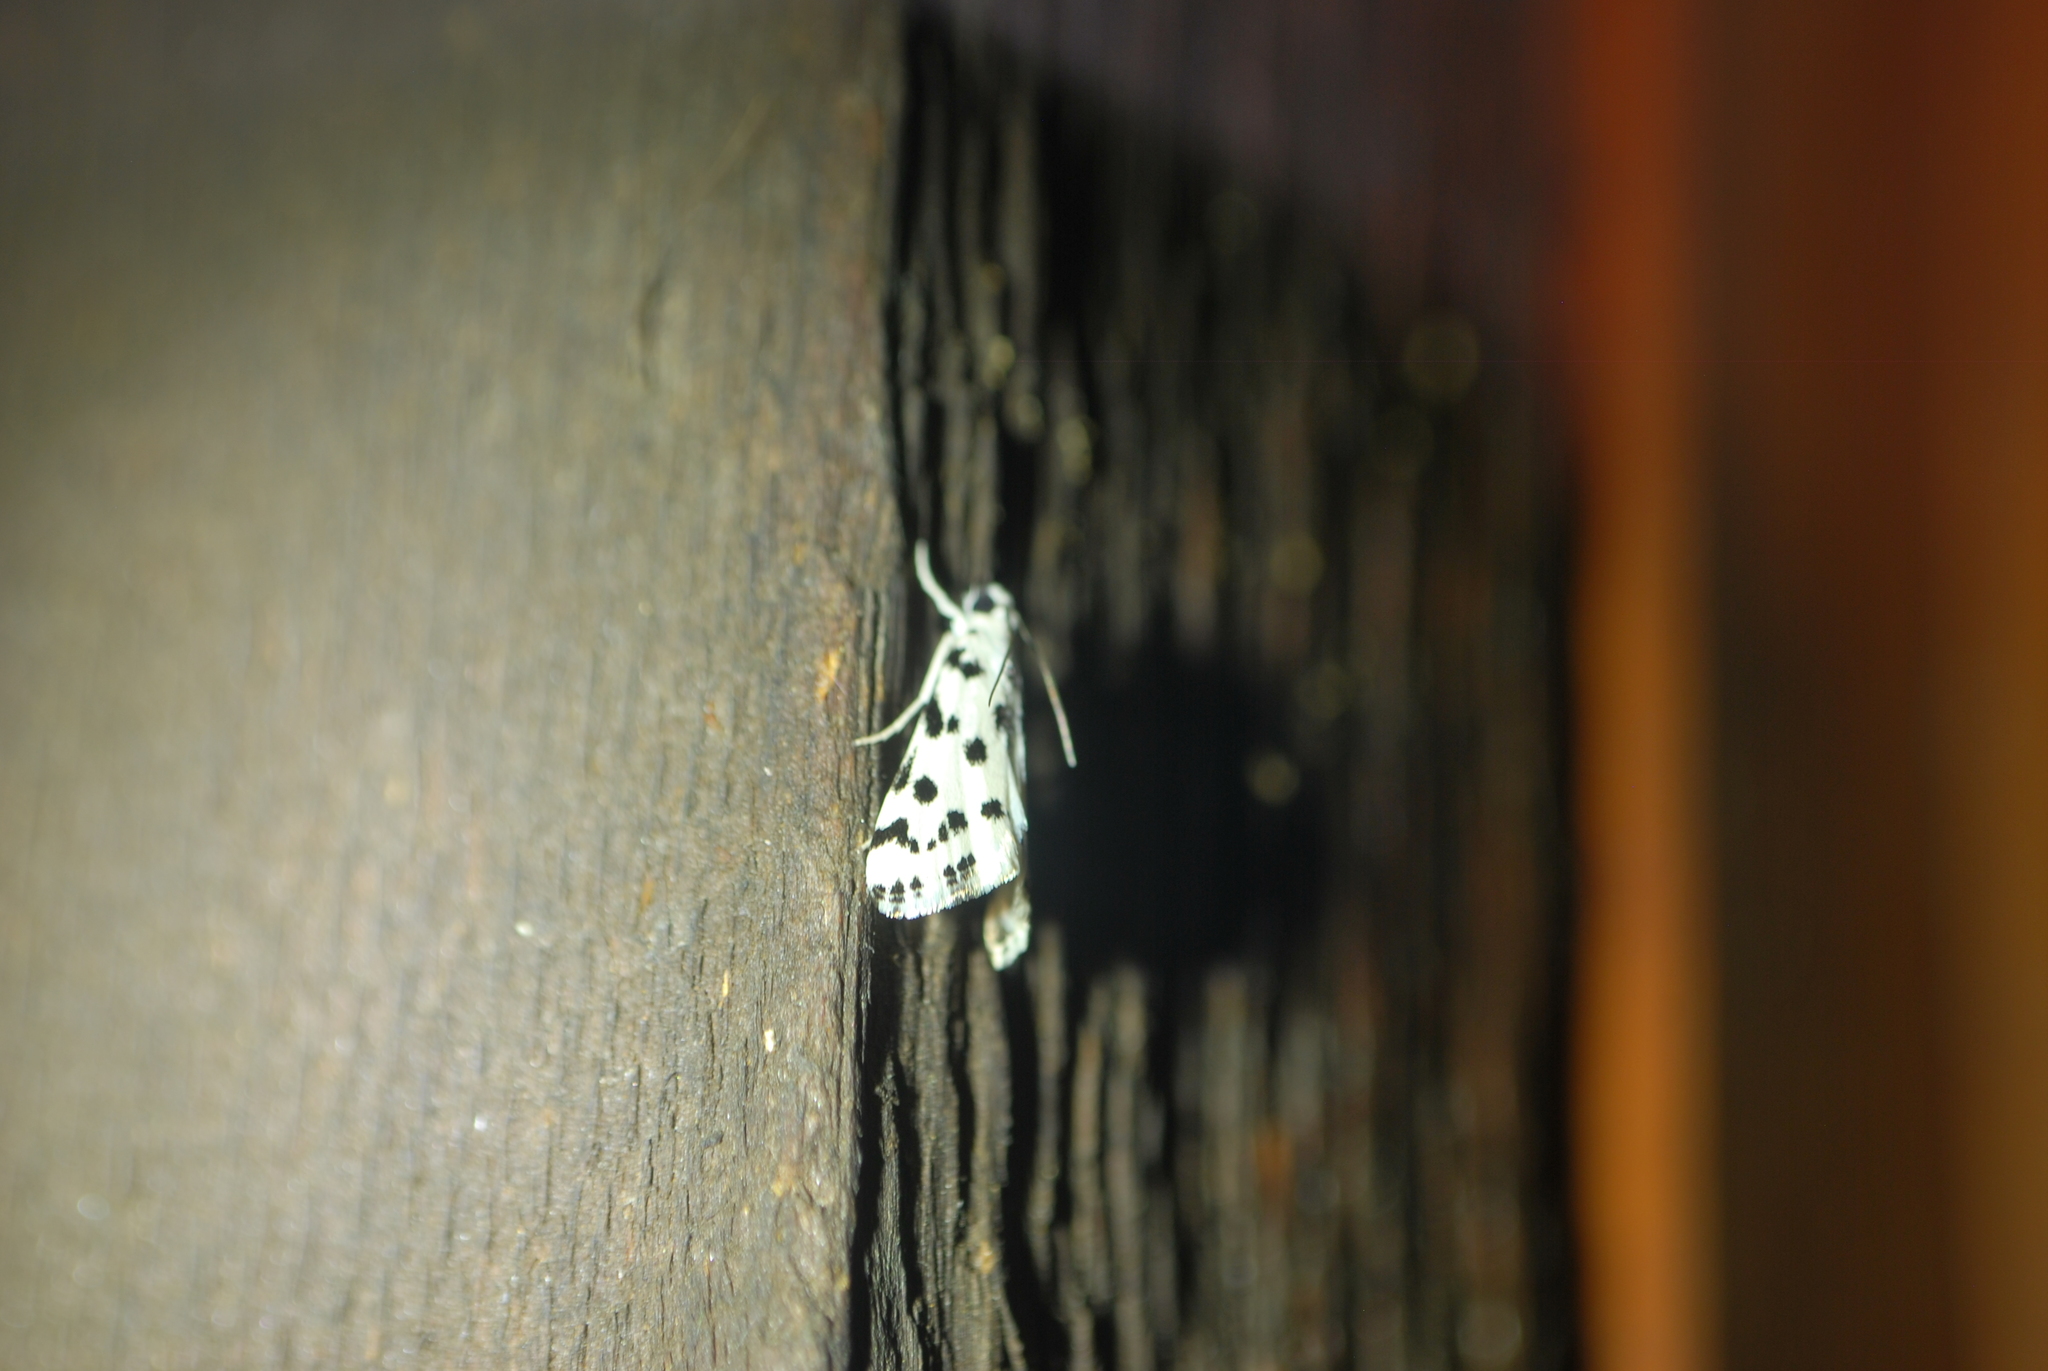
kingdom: Animalia
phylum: Arthropoda
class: Insecta
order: Lepidoptera
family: Crambidae
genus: Eustixia
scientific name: Eustixia pupula
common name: American cabbage pearl
